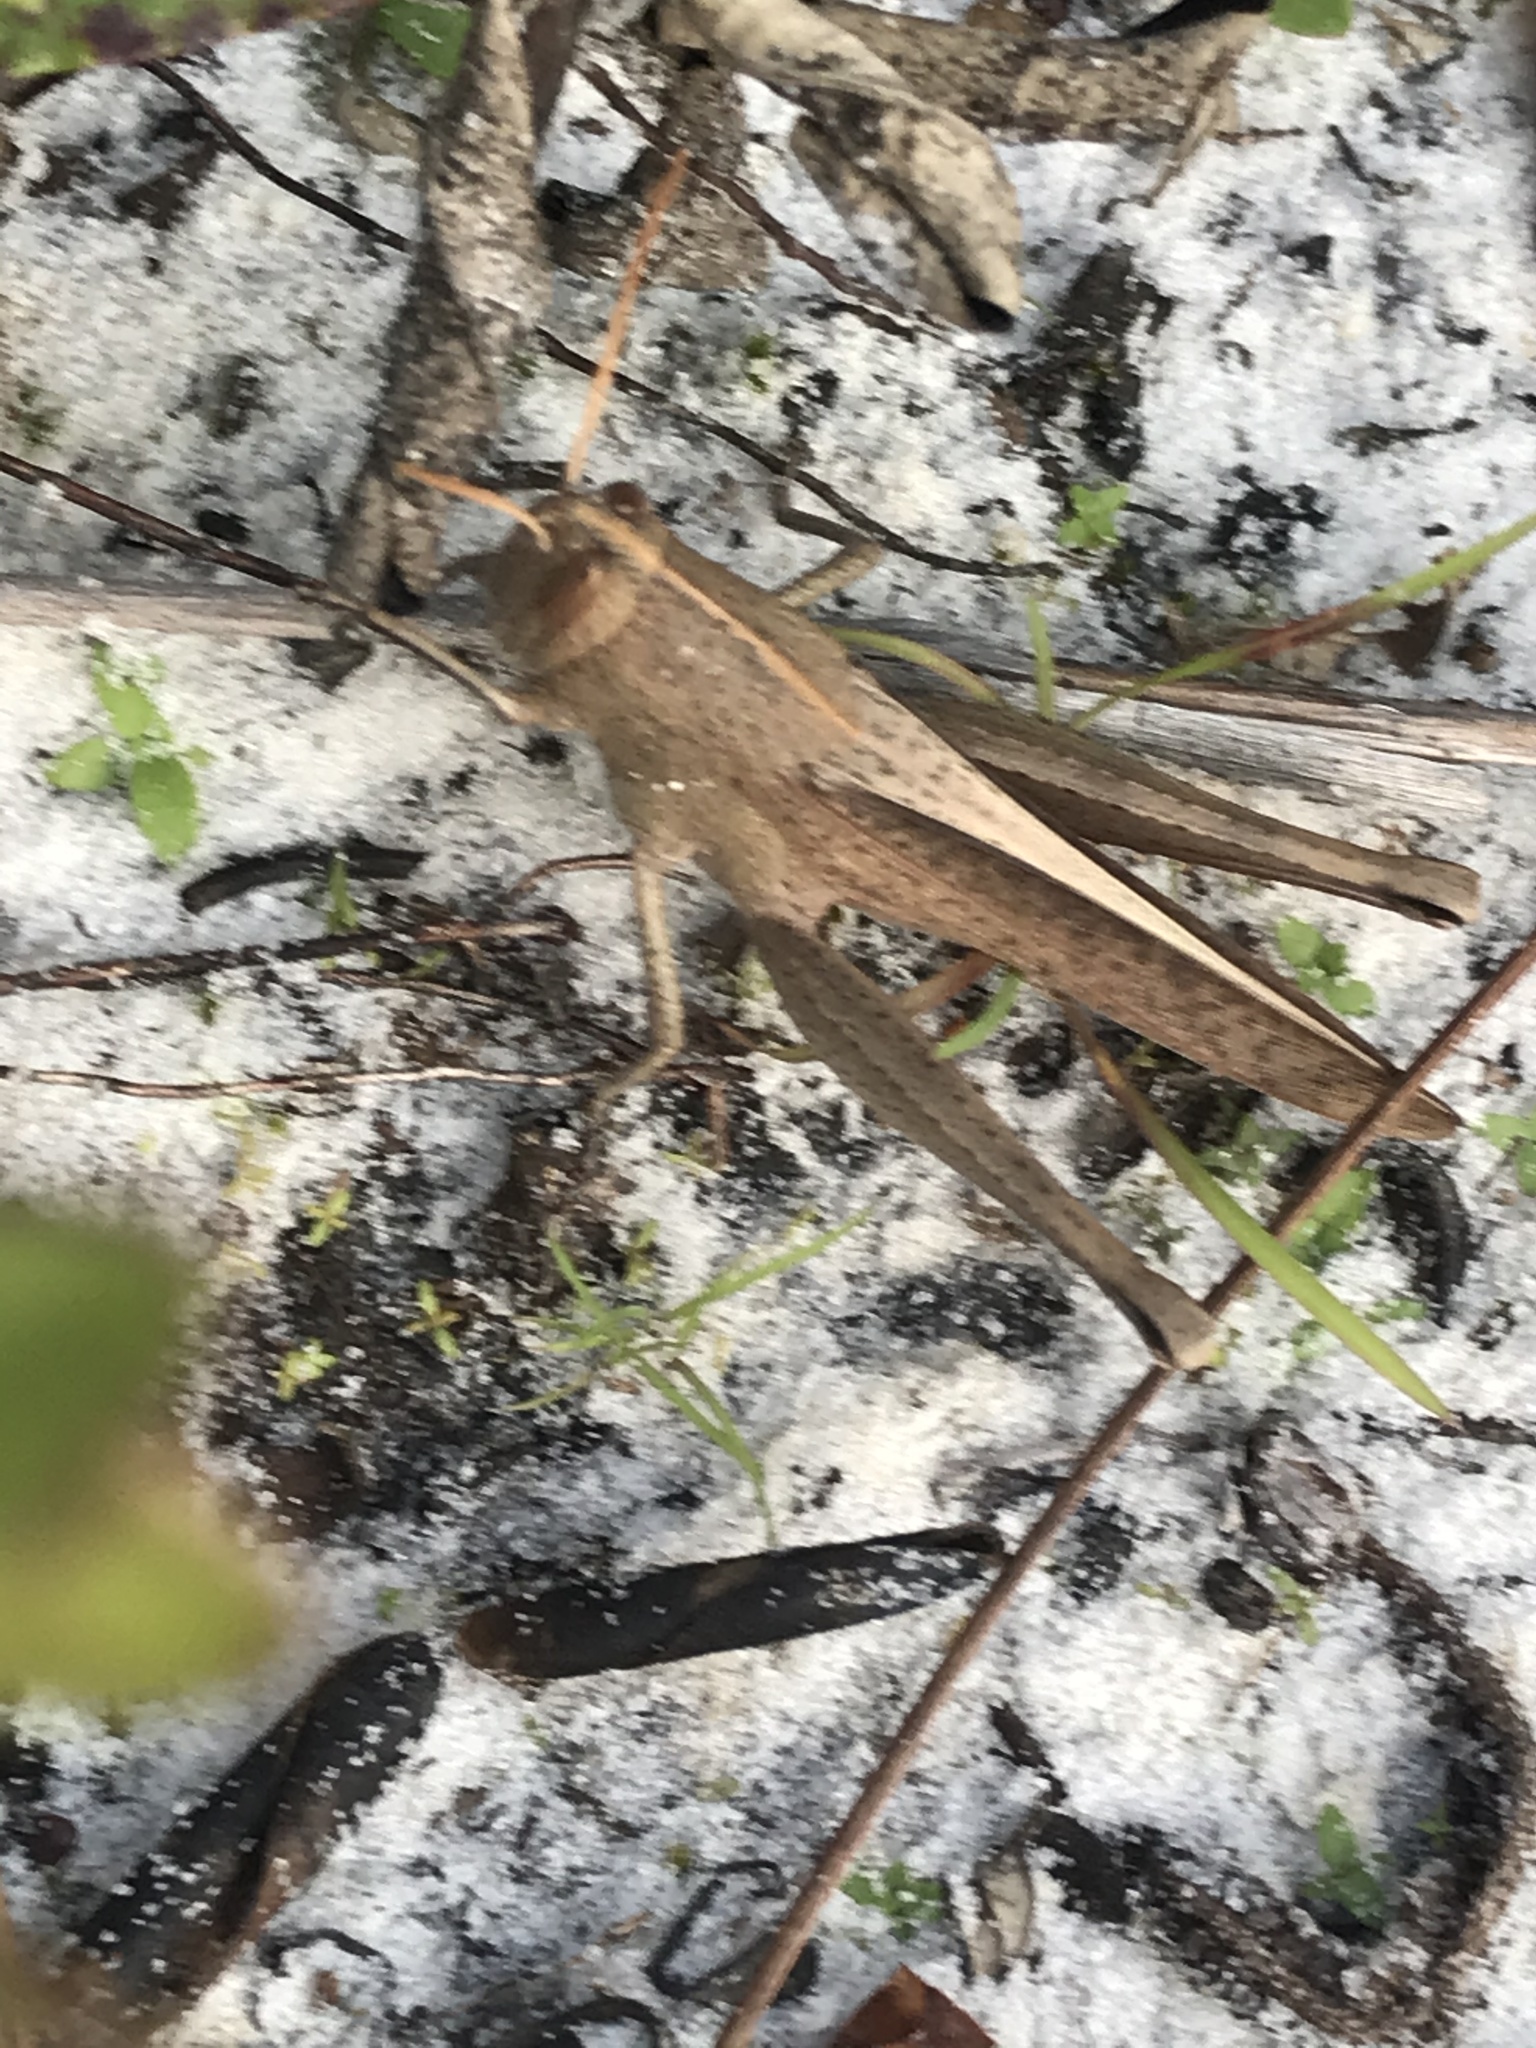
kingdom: Animalia
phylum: Arthropoda
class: Insecta
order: Orthoptera
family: Acrididae
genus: Schistocerca
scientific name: Schistocerca damnifica
